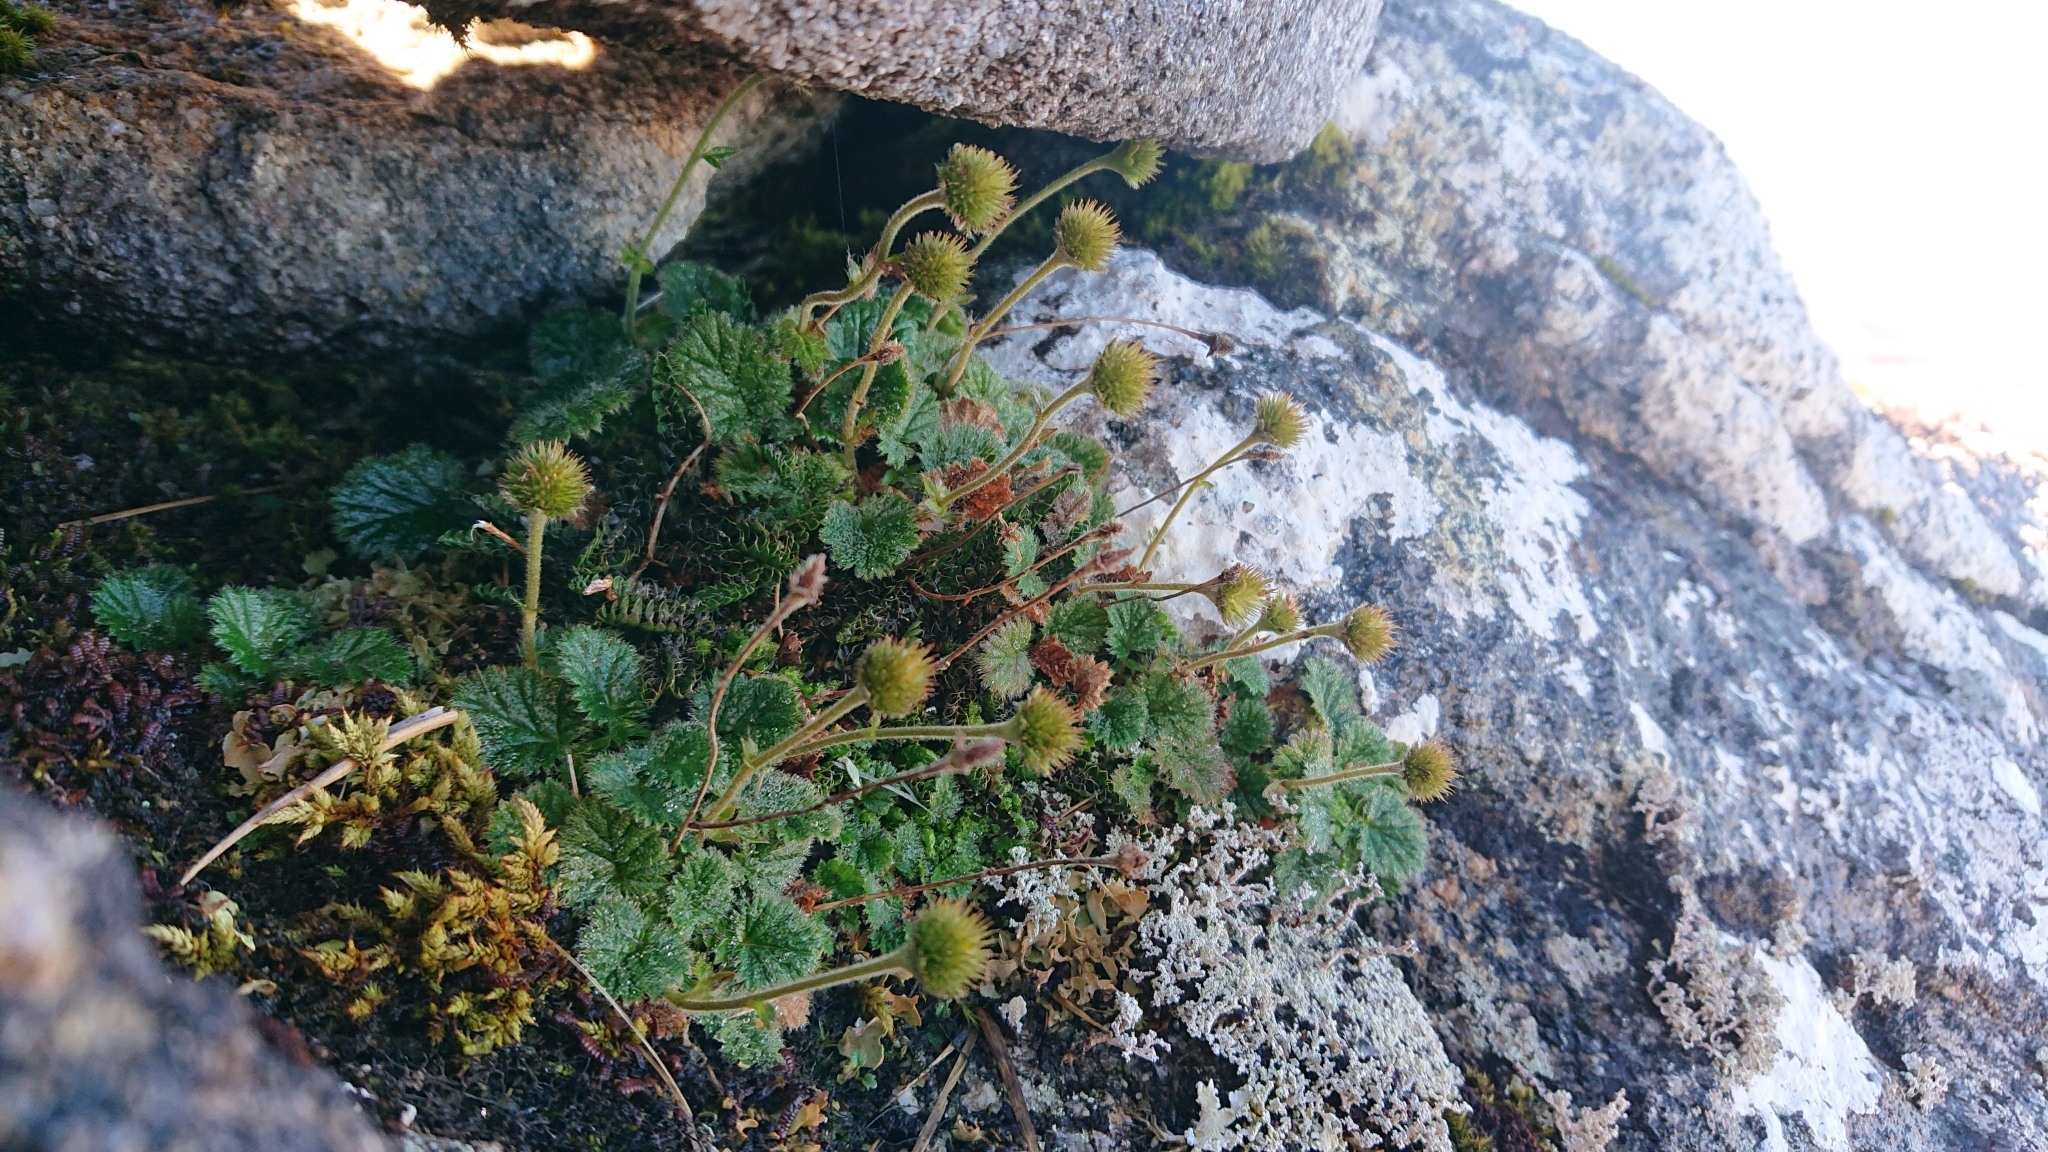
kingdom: Plantae
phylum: Tracheophyta
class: Magnoliopsida
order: Rosales
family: Rosaceae
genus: Geum
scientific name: Geum uniflorum
